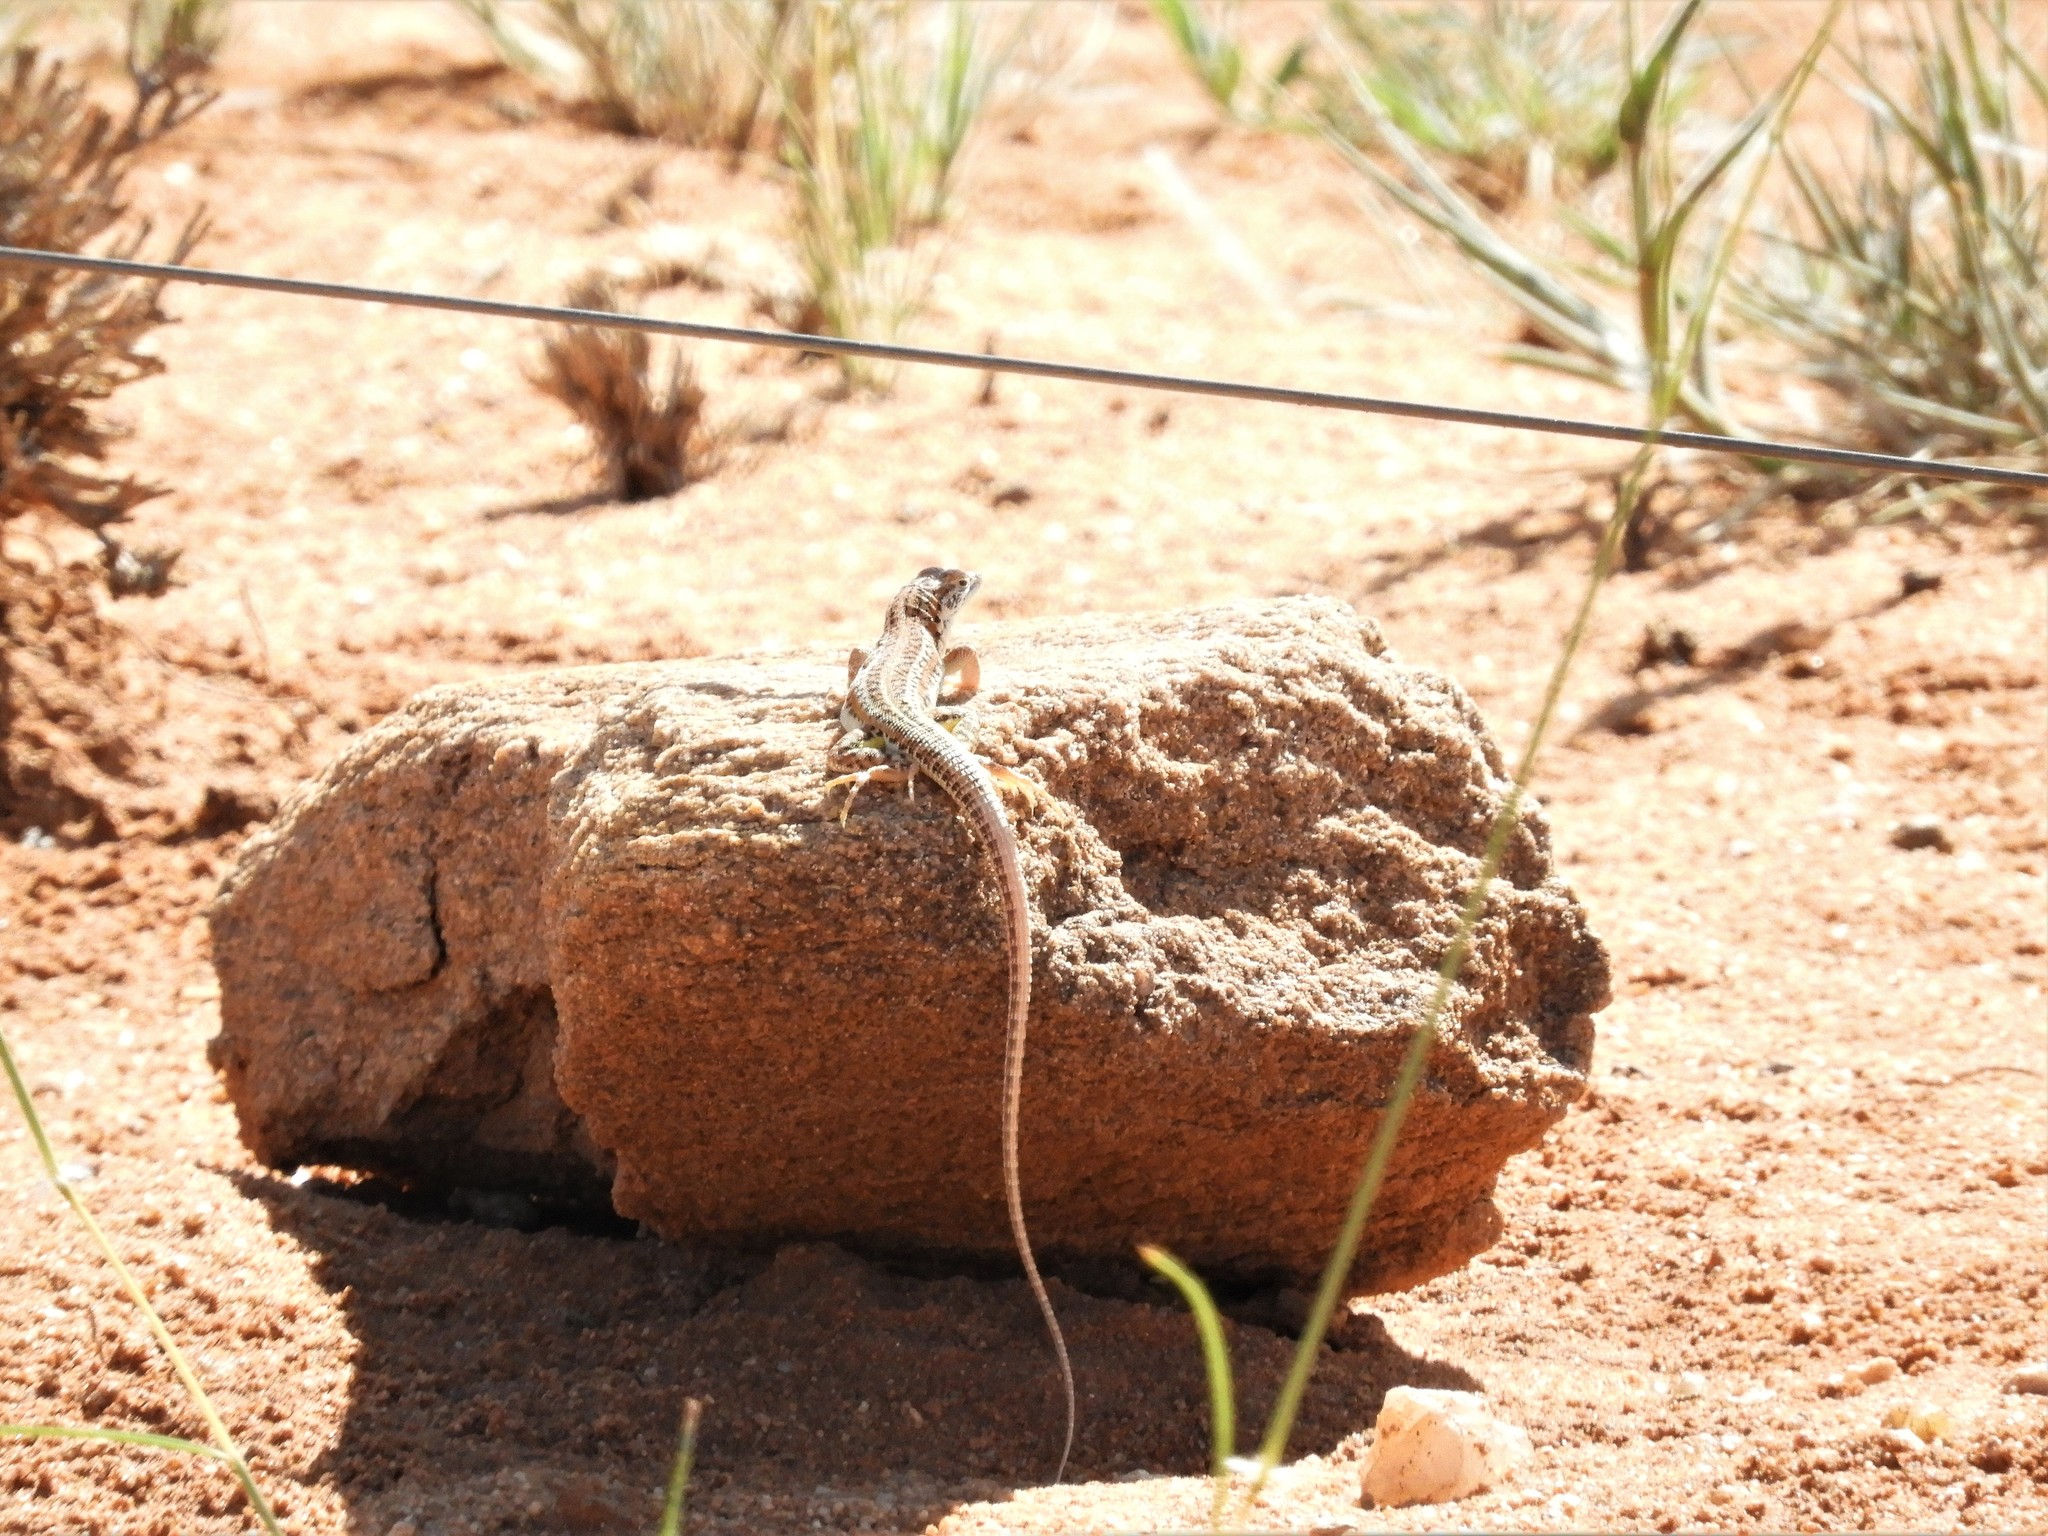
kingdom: Animalia
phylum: Chordata
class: Squamata
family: Lacertidae
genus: Meroles
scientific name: Meroles suborbitalis
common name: Spotted sand lizard
